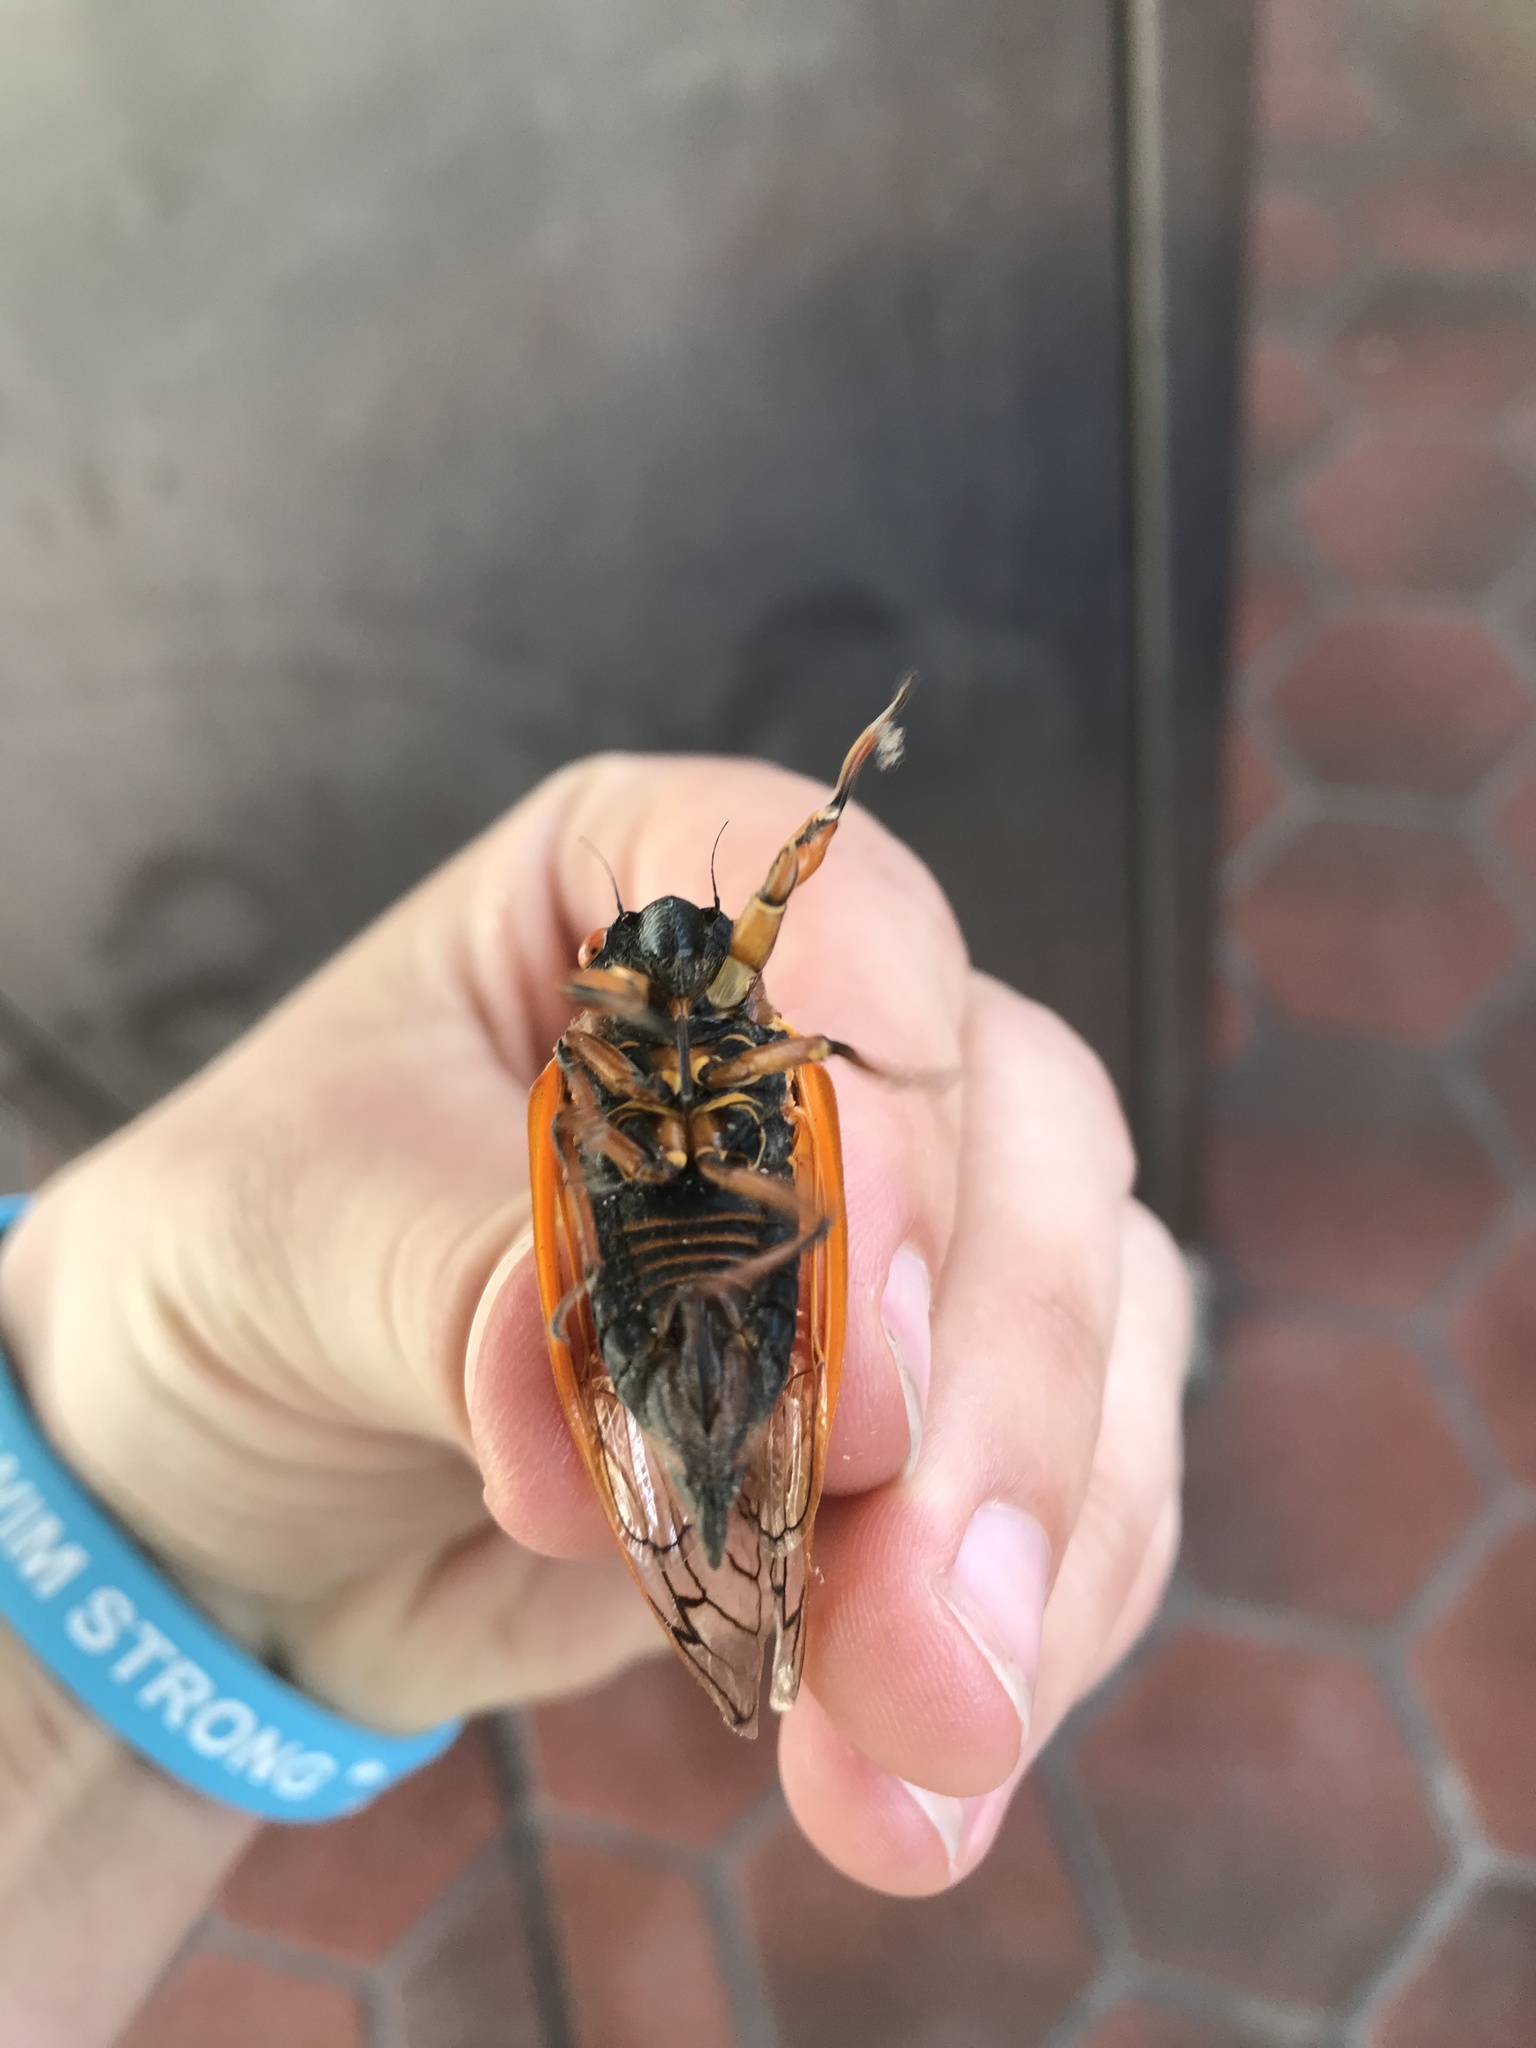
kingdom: Animalia
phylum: Arthropoda
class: Insecta
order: Hemiptera
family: Cicadidae
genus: Magicicada
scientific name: Magicicada septendecim
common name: Periodical cicada
